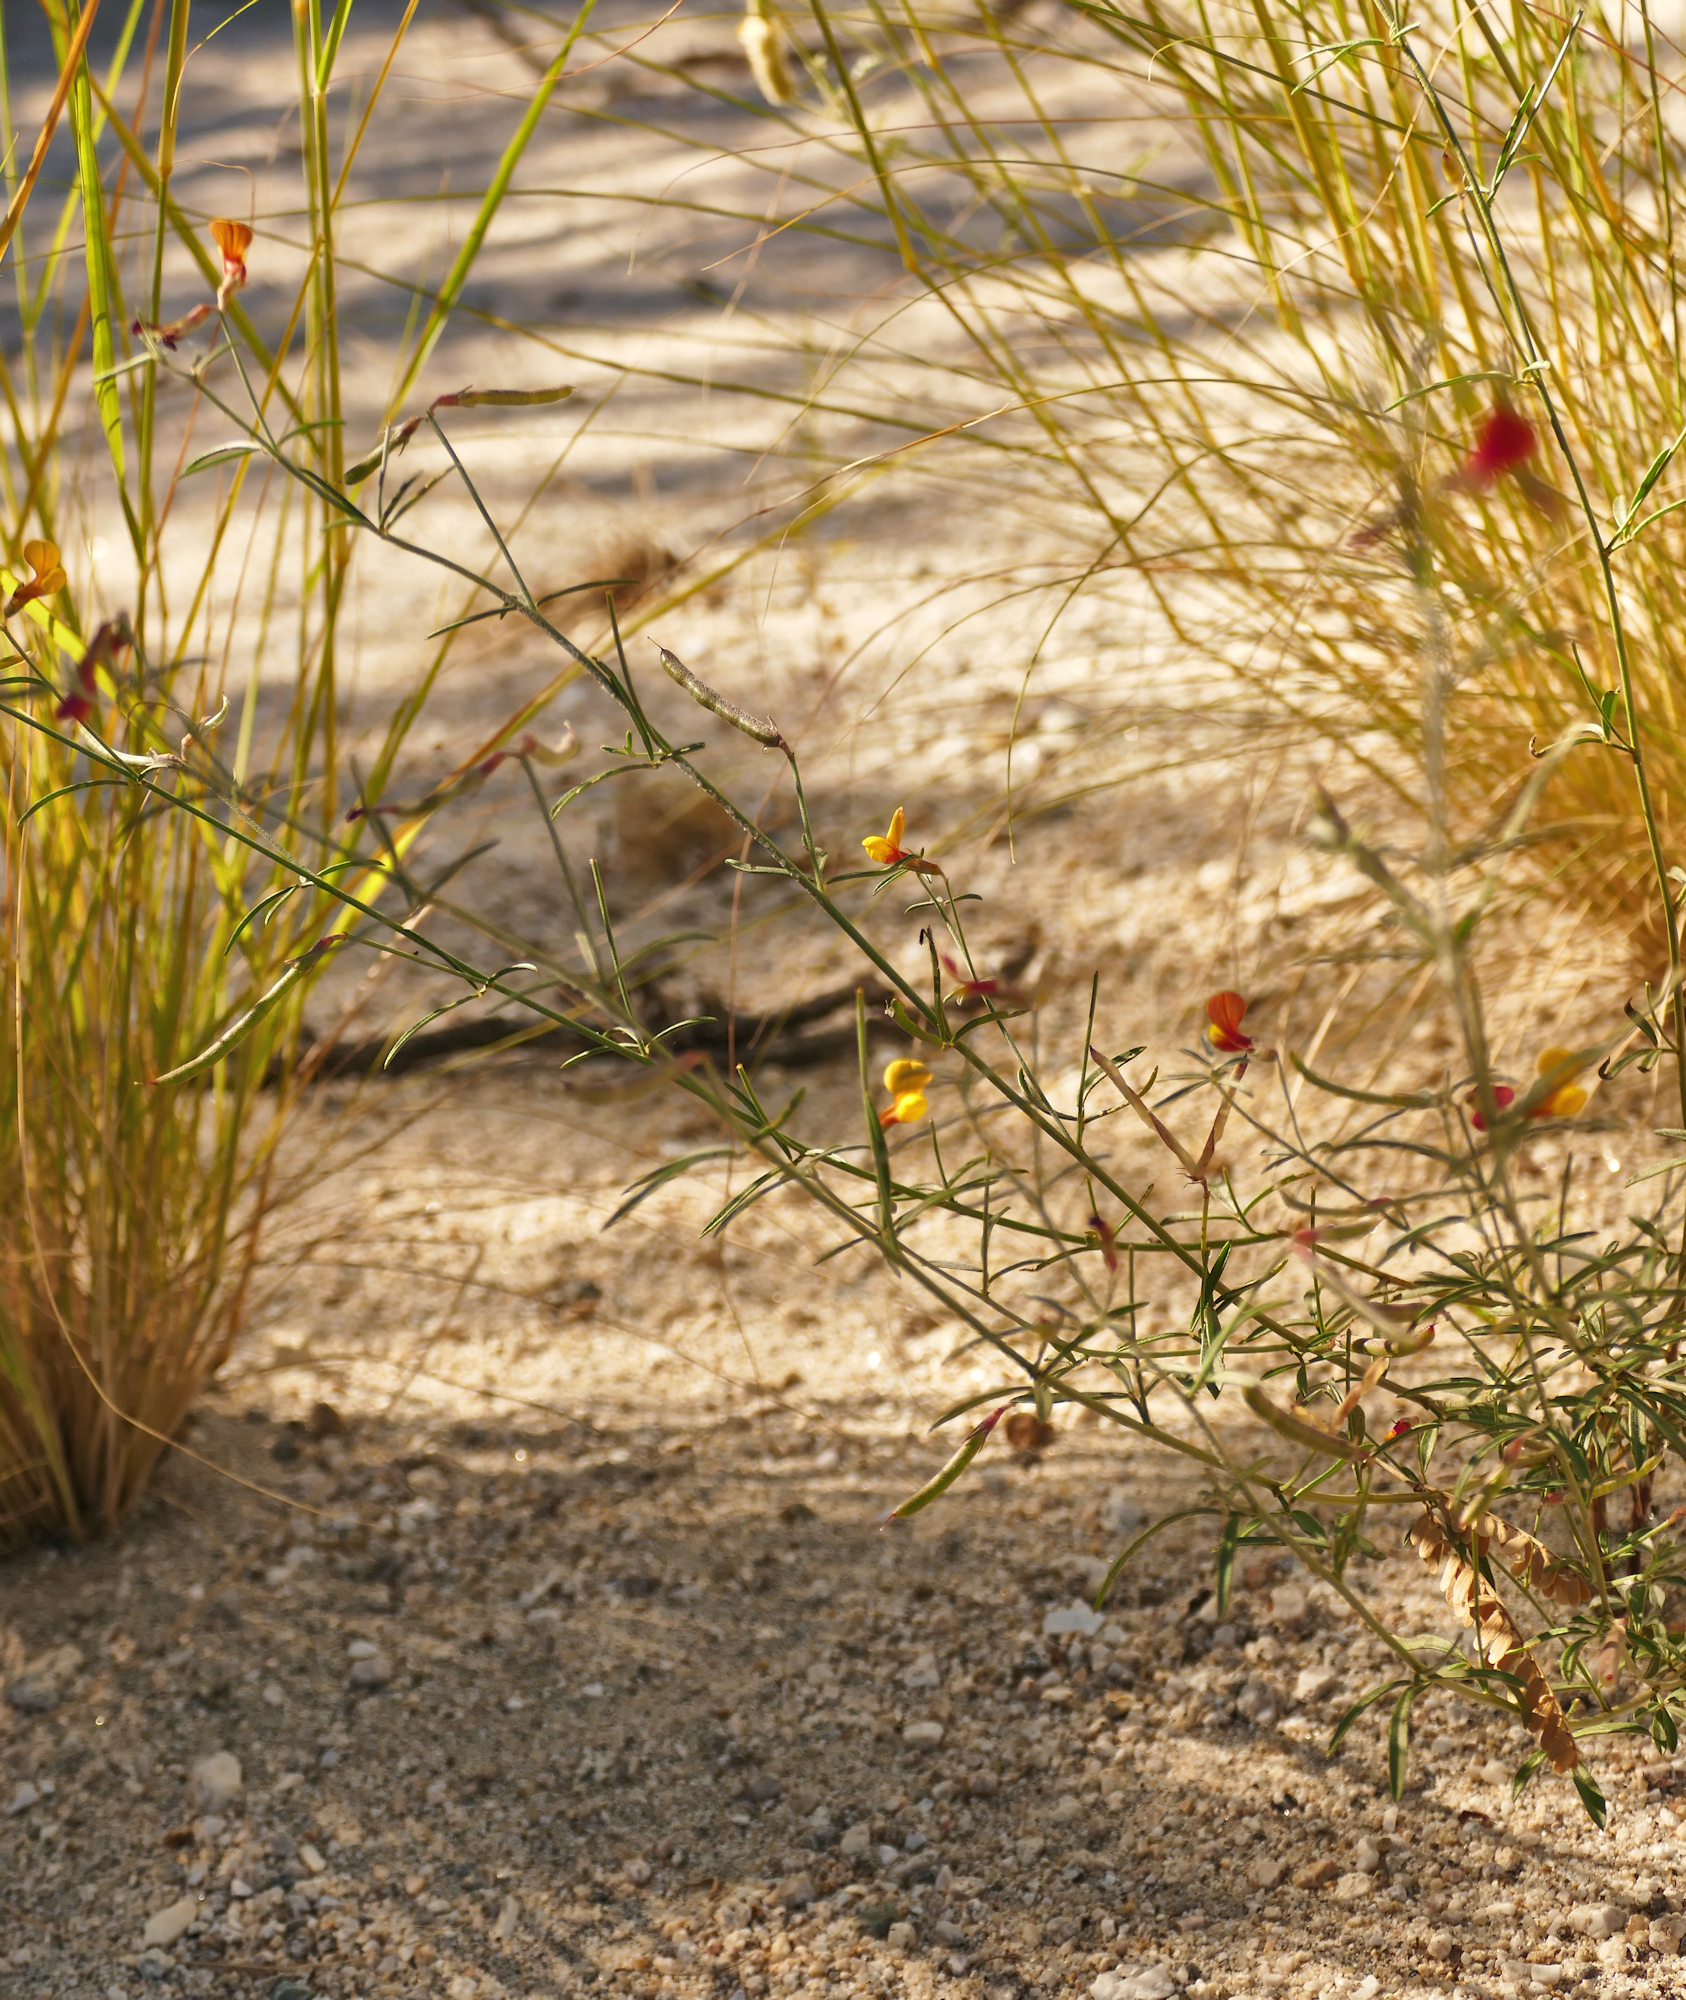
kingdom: Plantae
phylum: Tracheophyta
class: Magnoliopsida
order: Fabales
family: Fabaceae
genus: Acmispon
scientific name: Acmispon oroboides
